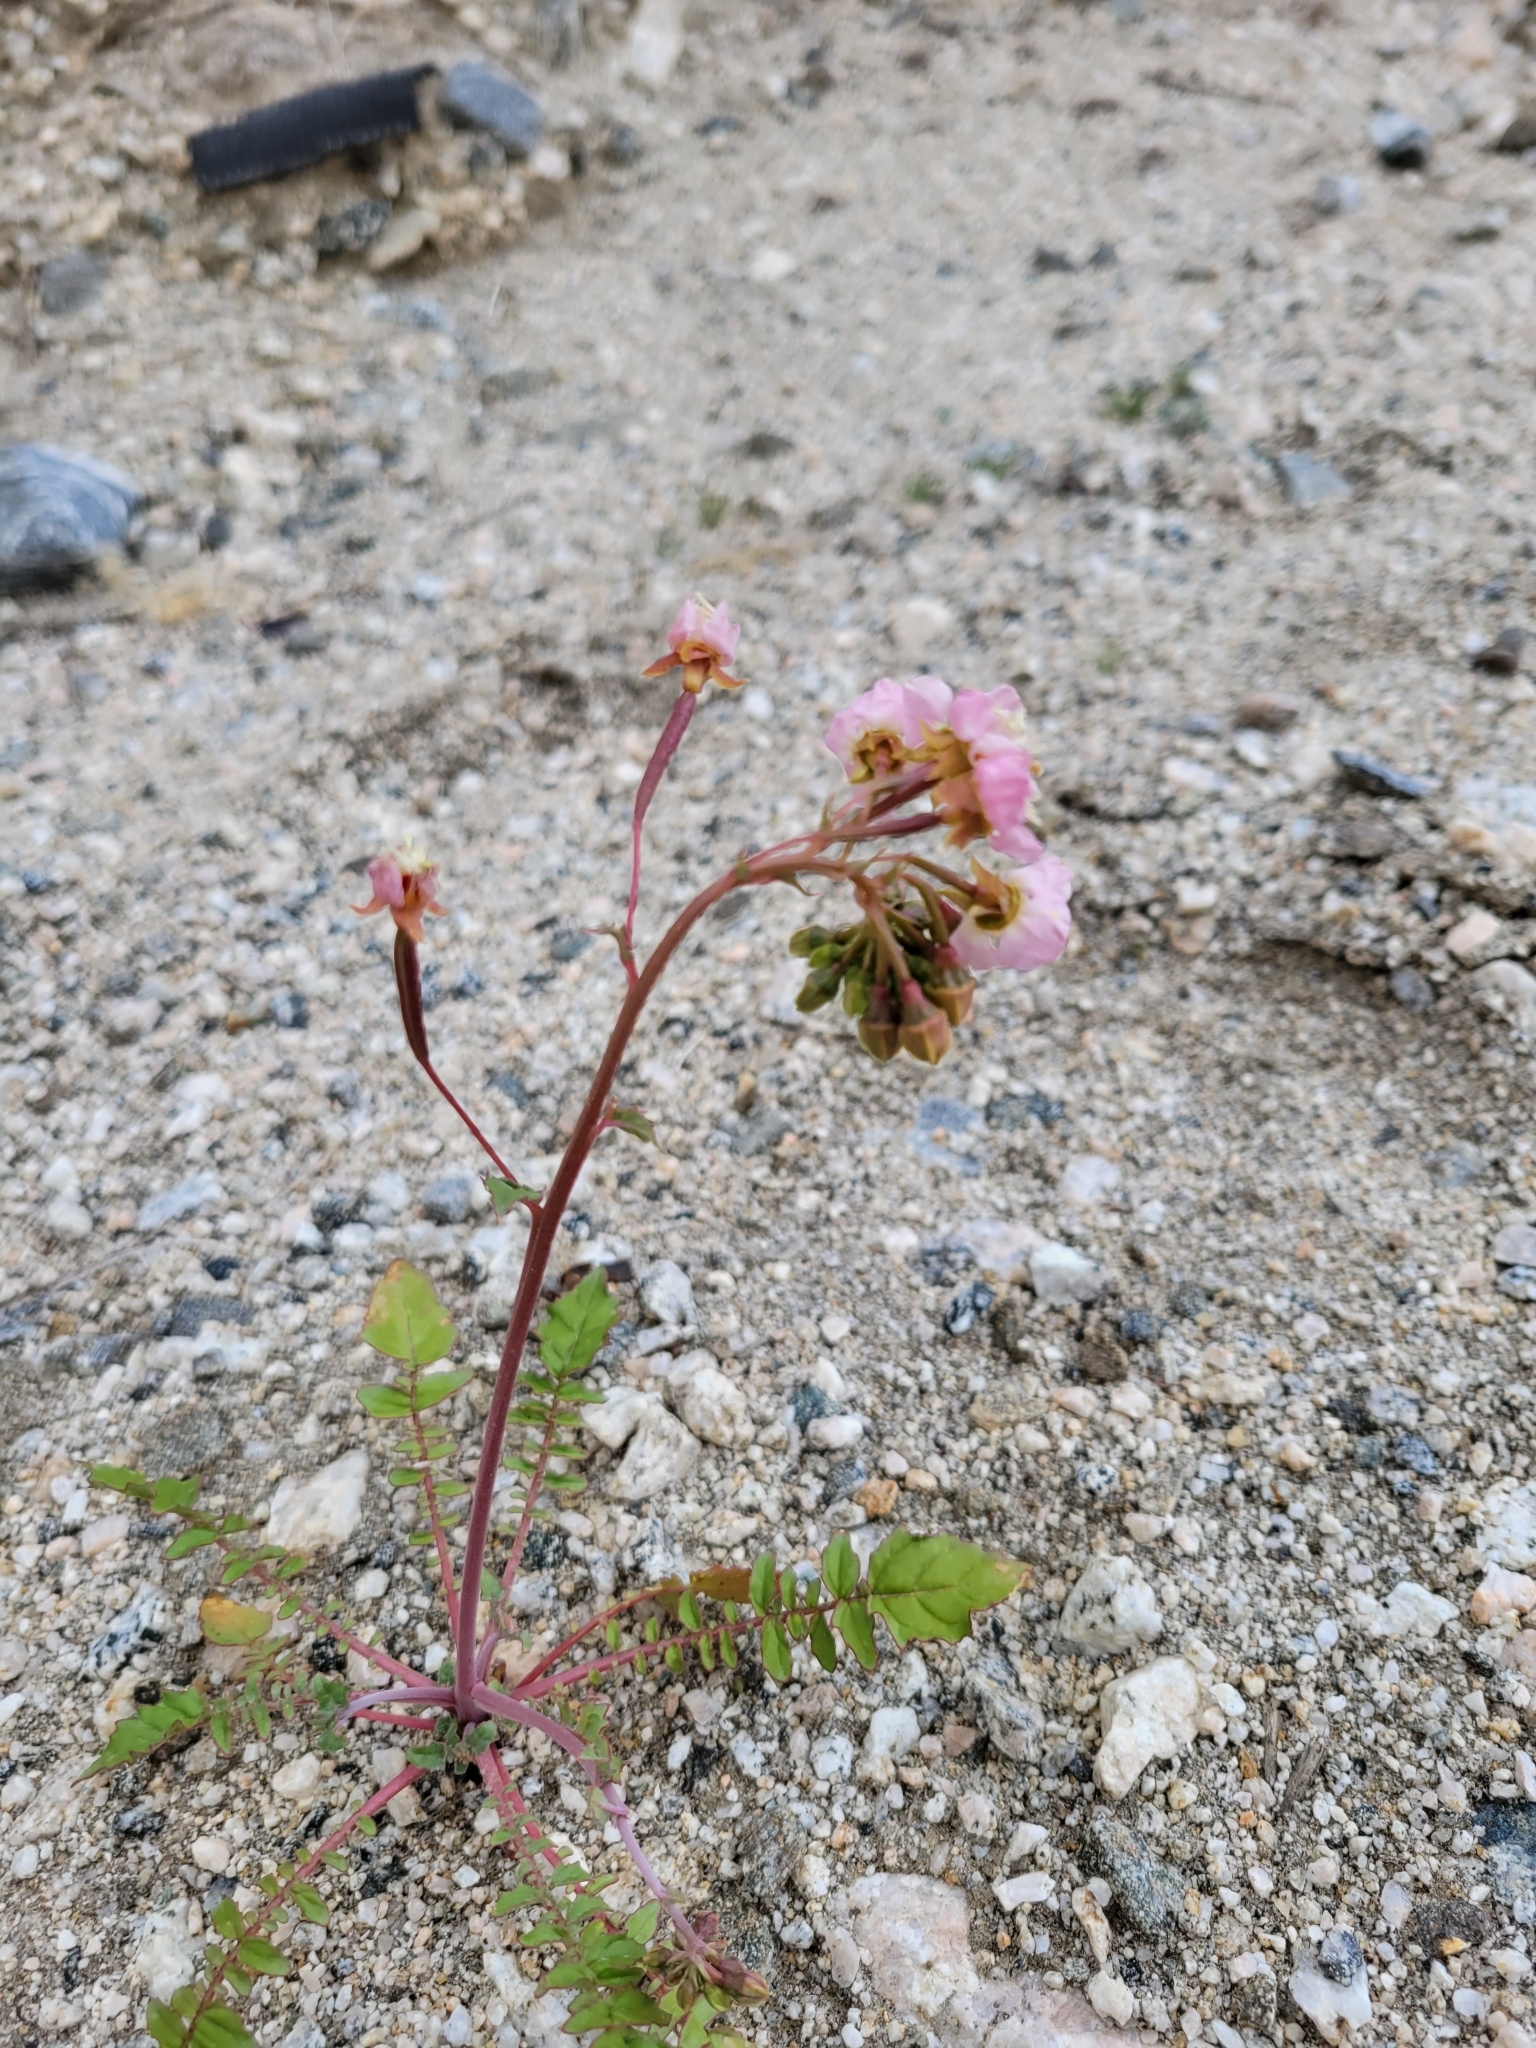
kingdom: Plantae
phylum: Tracheophyta
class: Magnoliopsida
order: Myrtales
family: Onagraceae
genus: Chylismia
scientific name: Chylismia claviformis
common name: Browneyes
